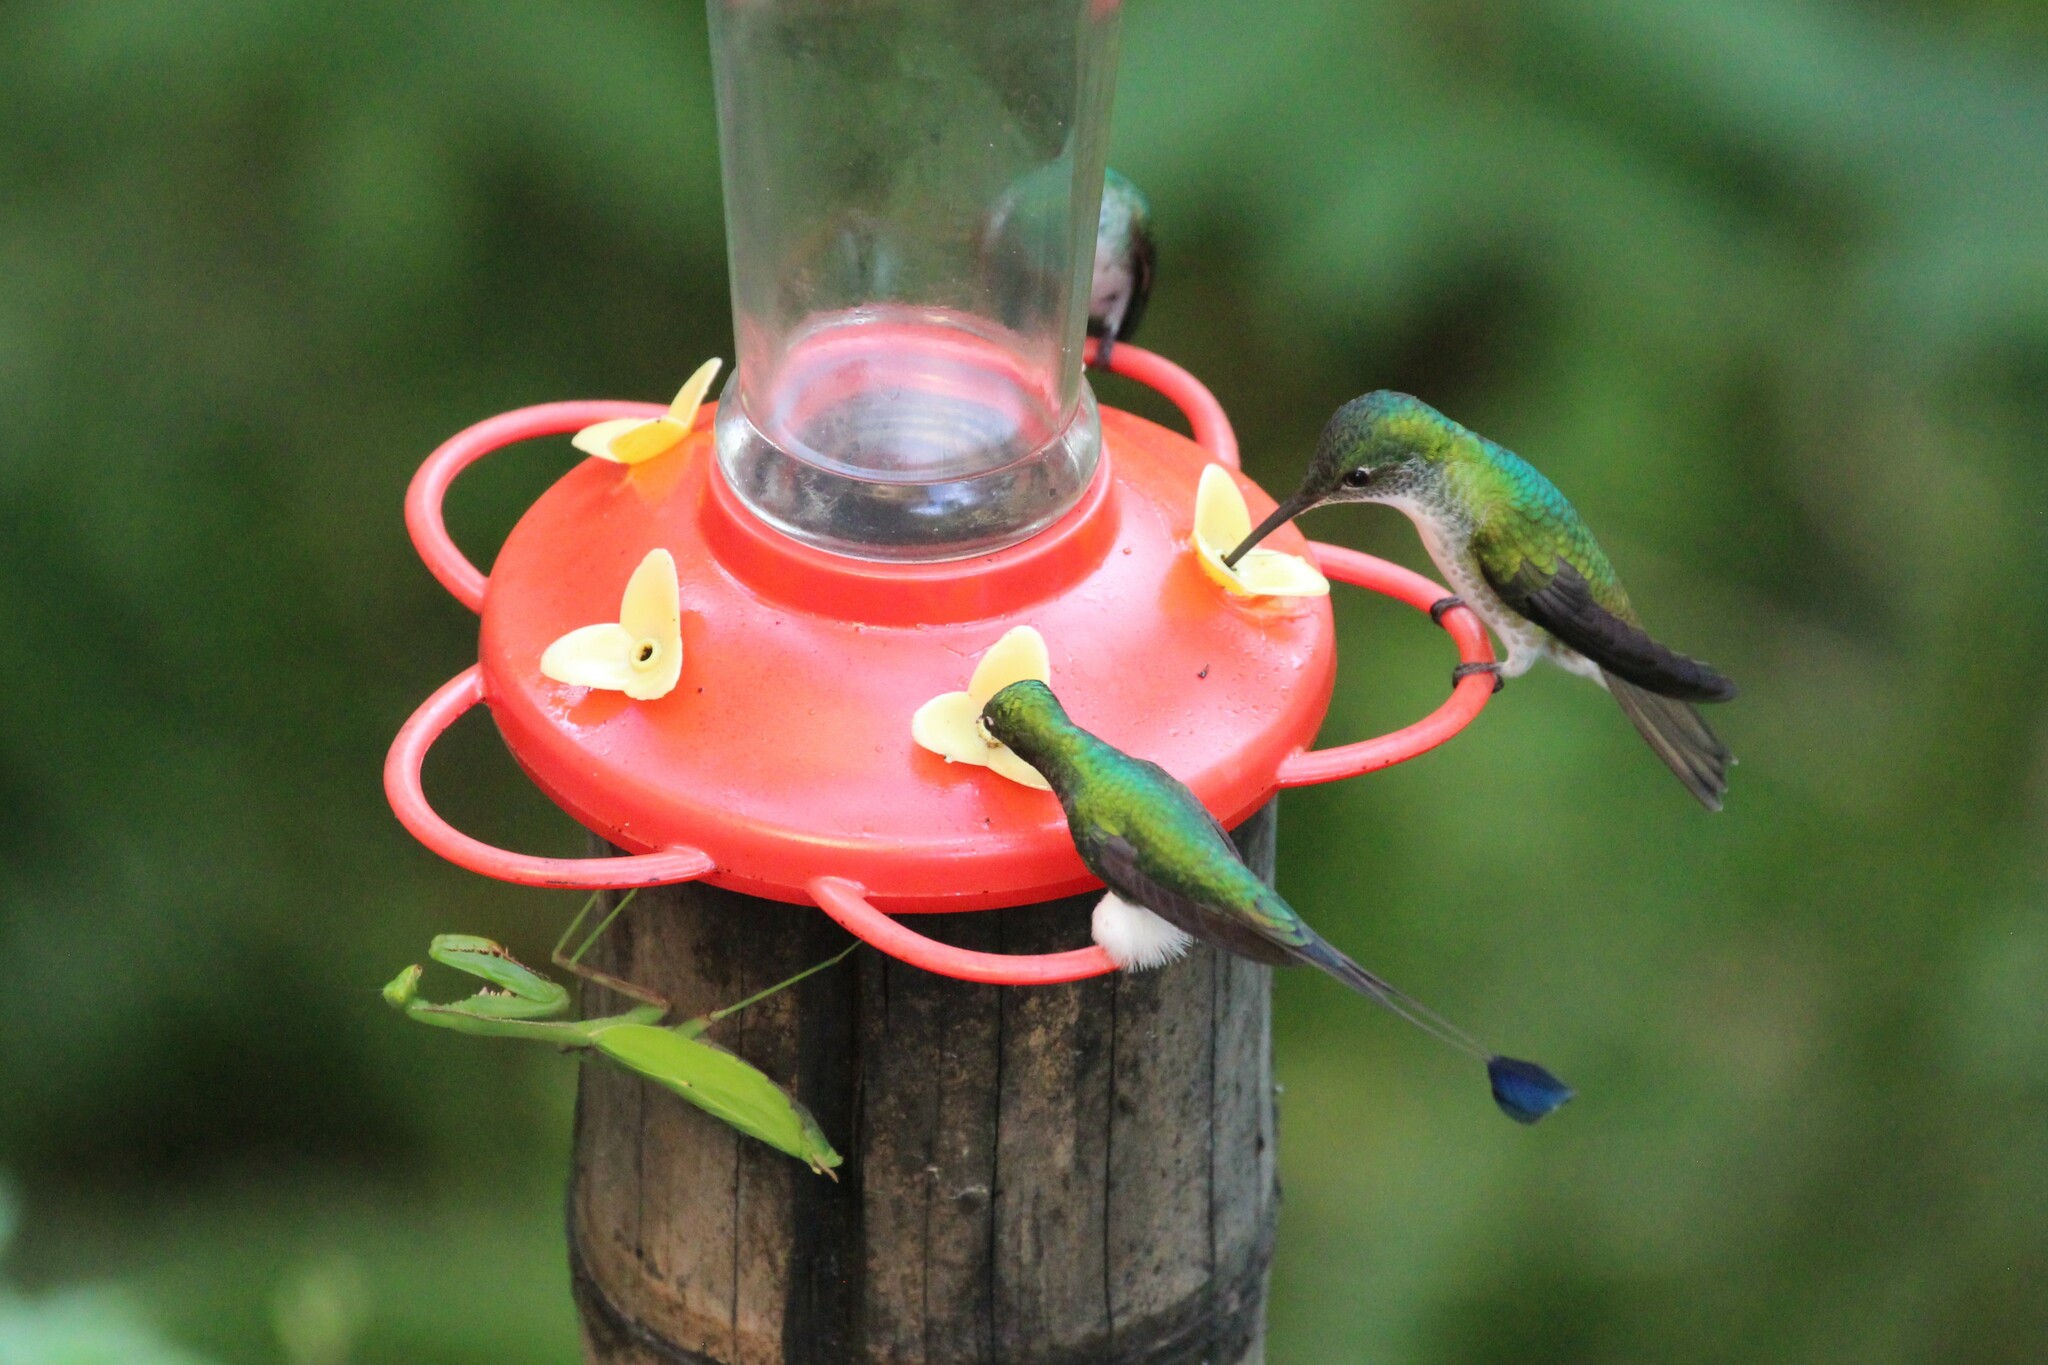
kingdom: Animalia
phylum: Chordata
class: Aves
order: Apodiformes
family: Trochilidae
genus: Ocreatus
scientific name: Ocreatus underwoodii
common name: Booted racket-tail
